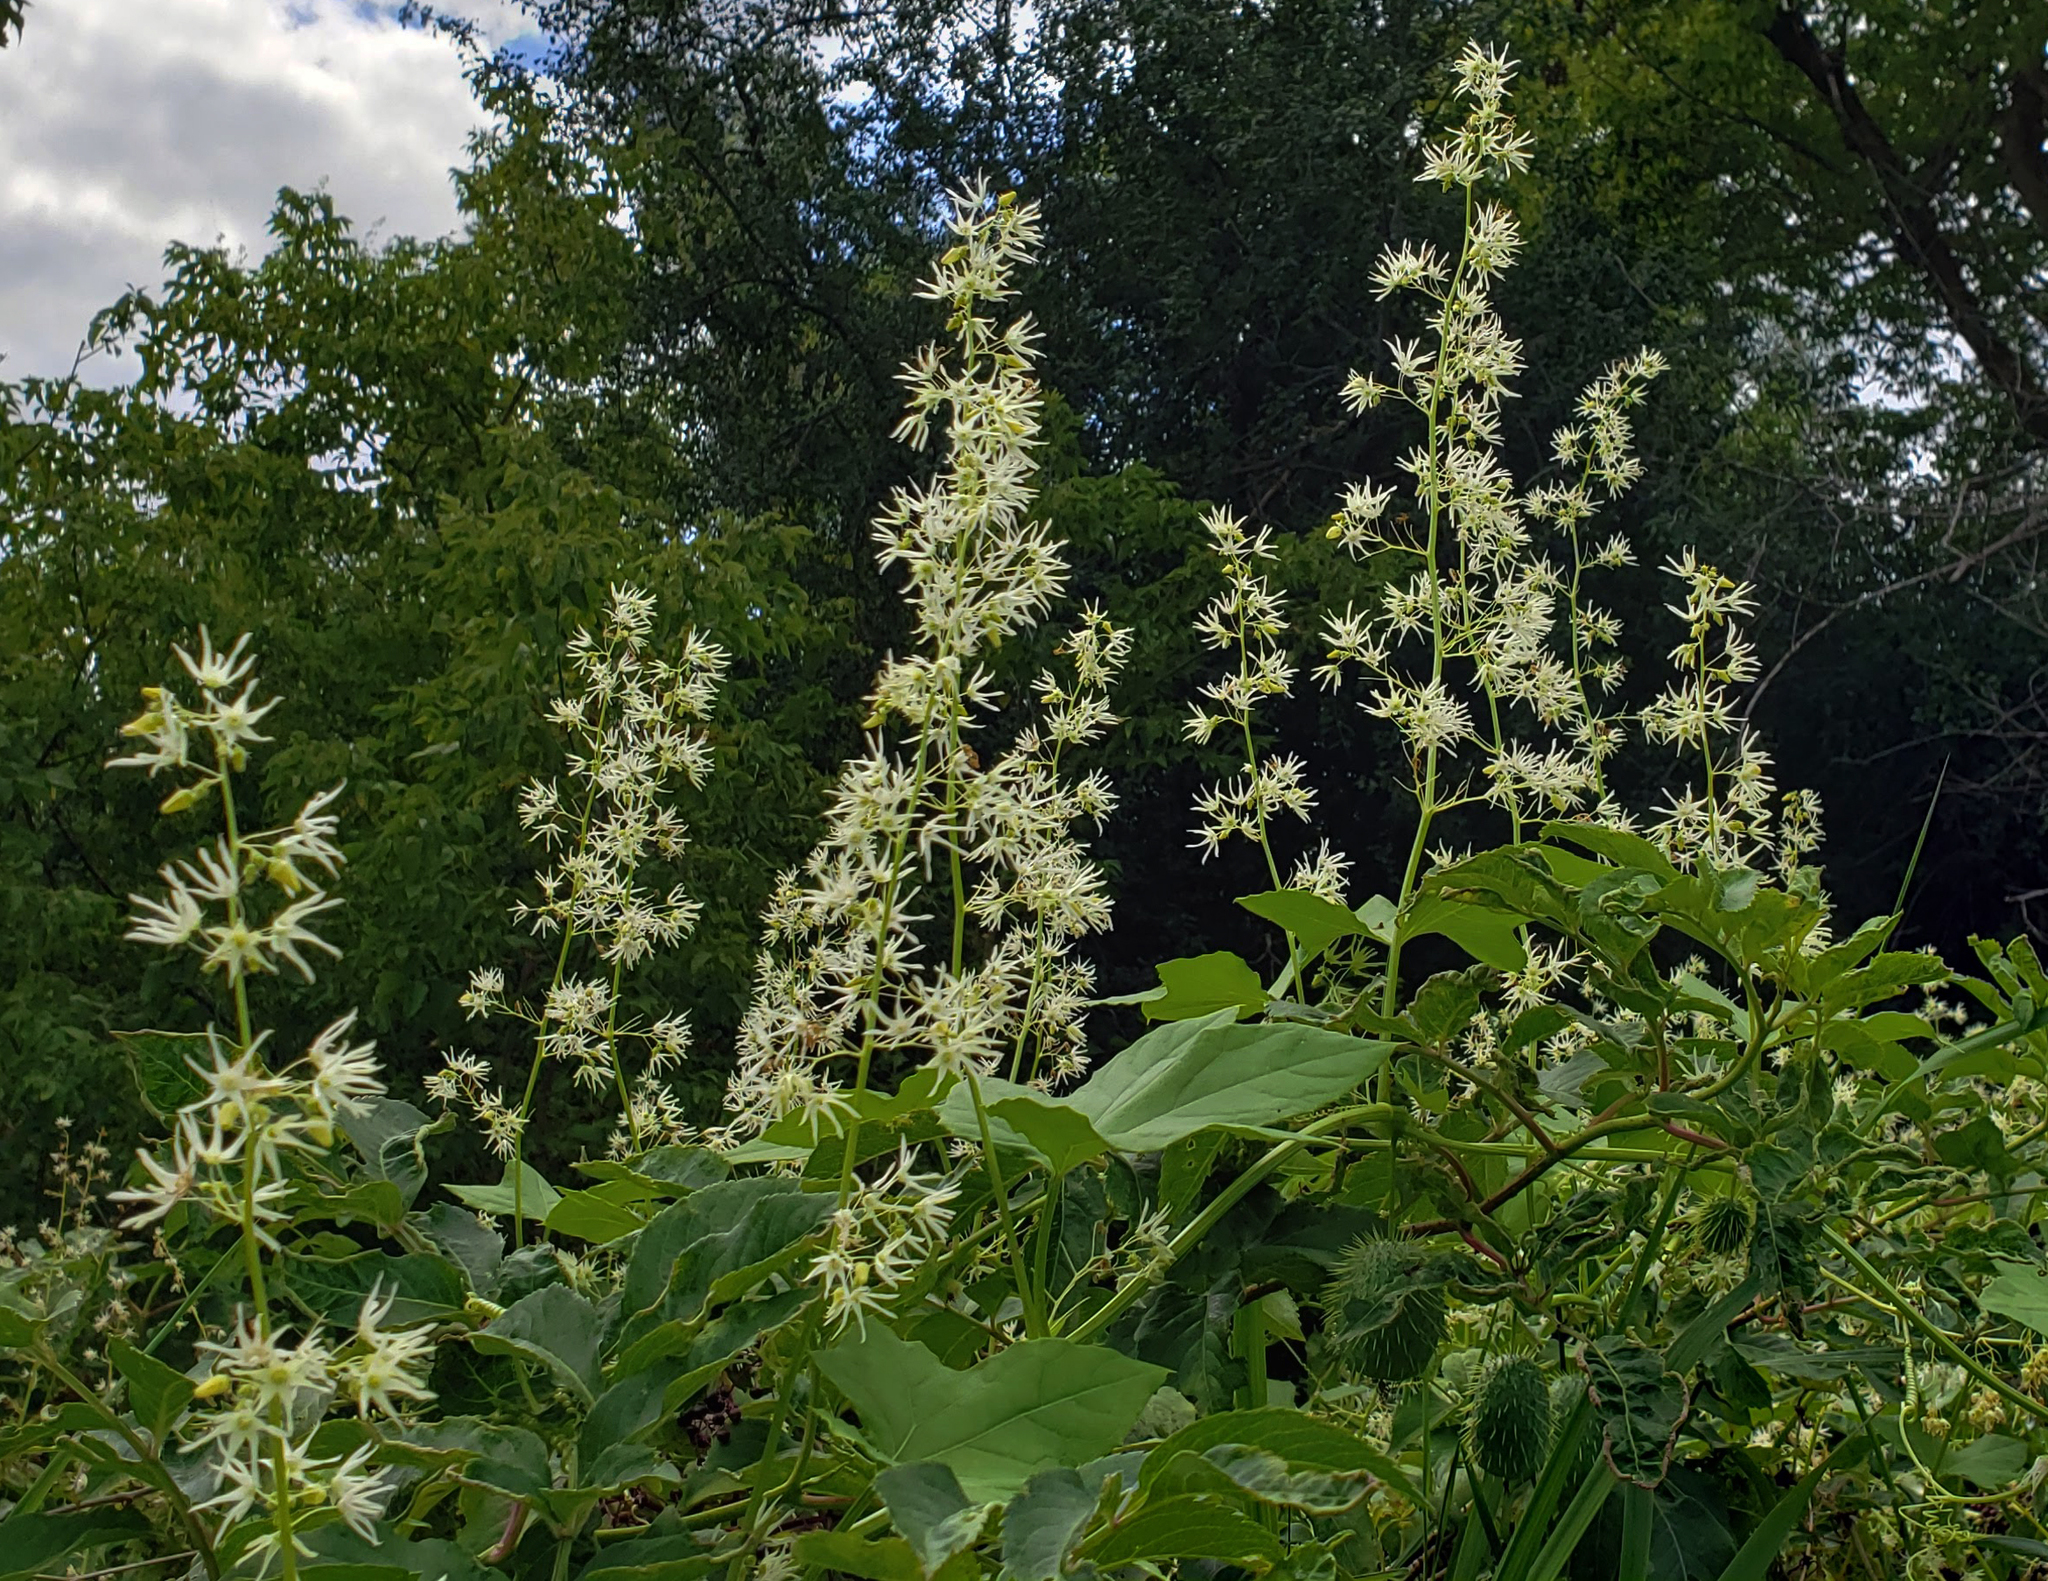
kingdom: Plantae
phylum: Tracheophyta
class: Magnoliopsida
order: Cucurbitales
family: Cucurbitaceae
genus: Echinocystis
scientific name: Echinocystis lobata
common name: Wild cucumber
